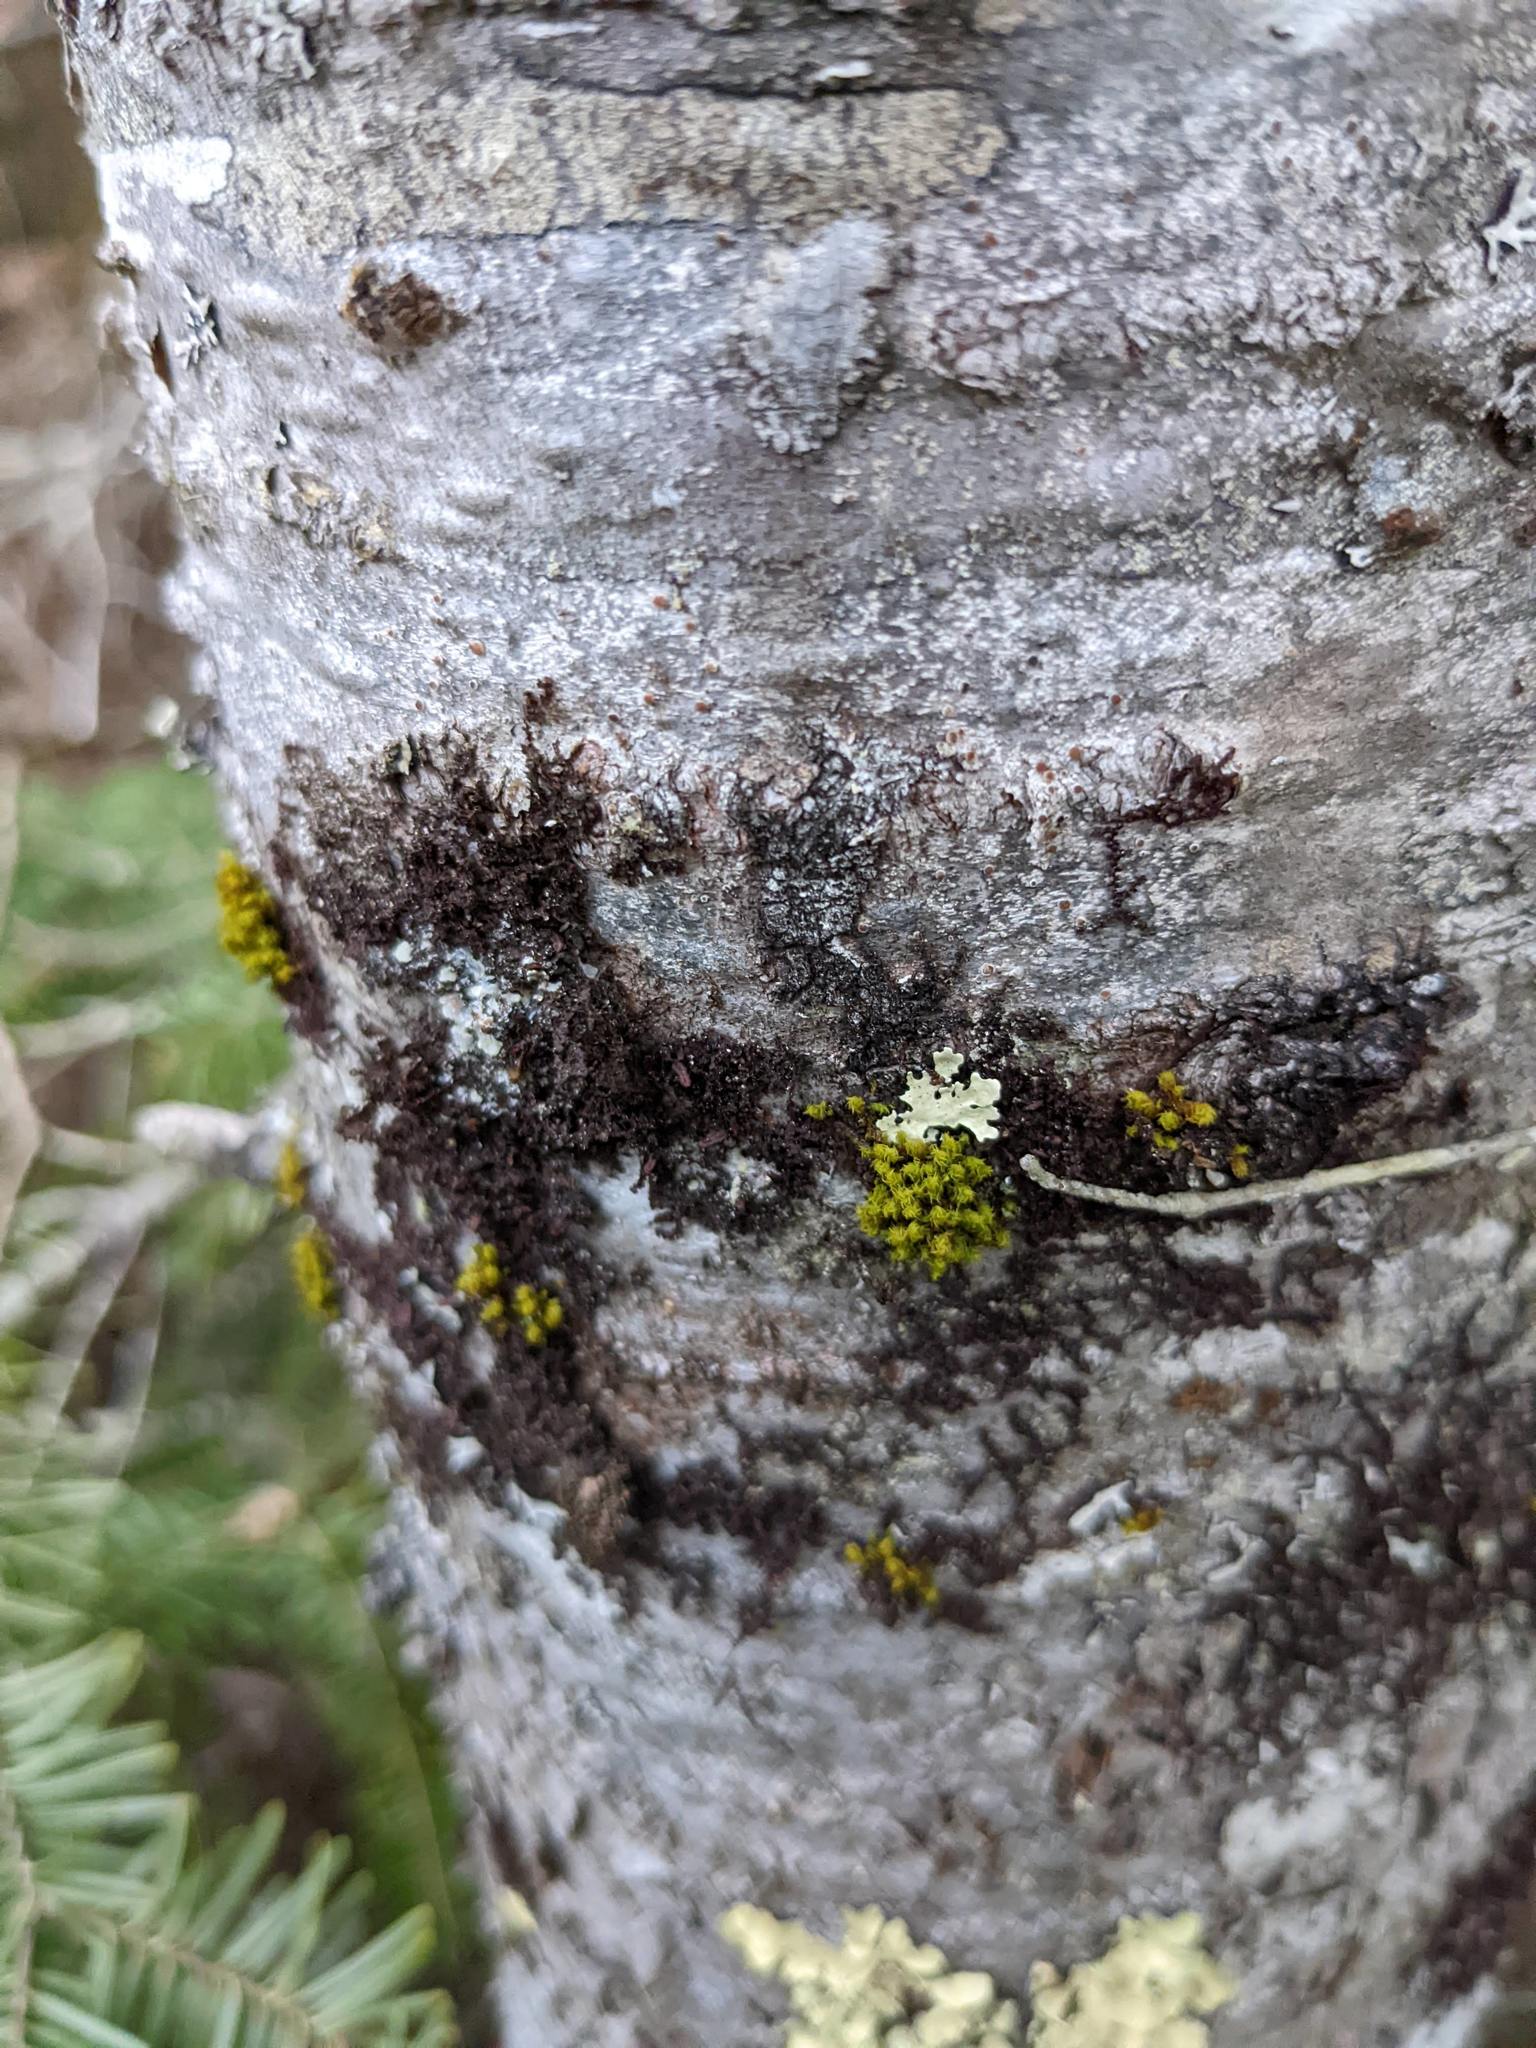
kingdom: Plantae
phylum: Bryophyta
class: Bryopsida
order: Orthotrichales
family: Orthotrichaceae
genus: Ulota
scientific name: Ulota crispa
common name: Crisped pincushion moss
